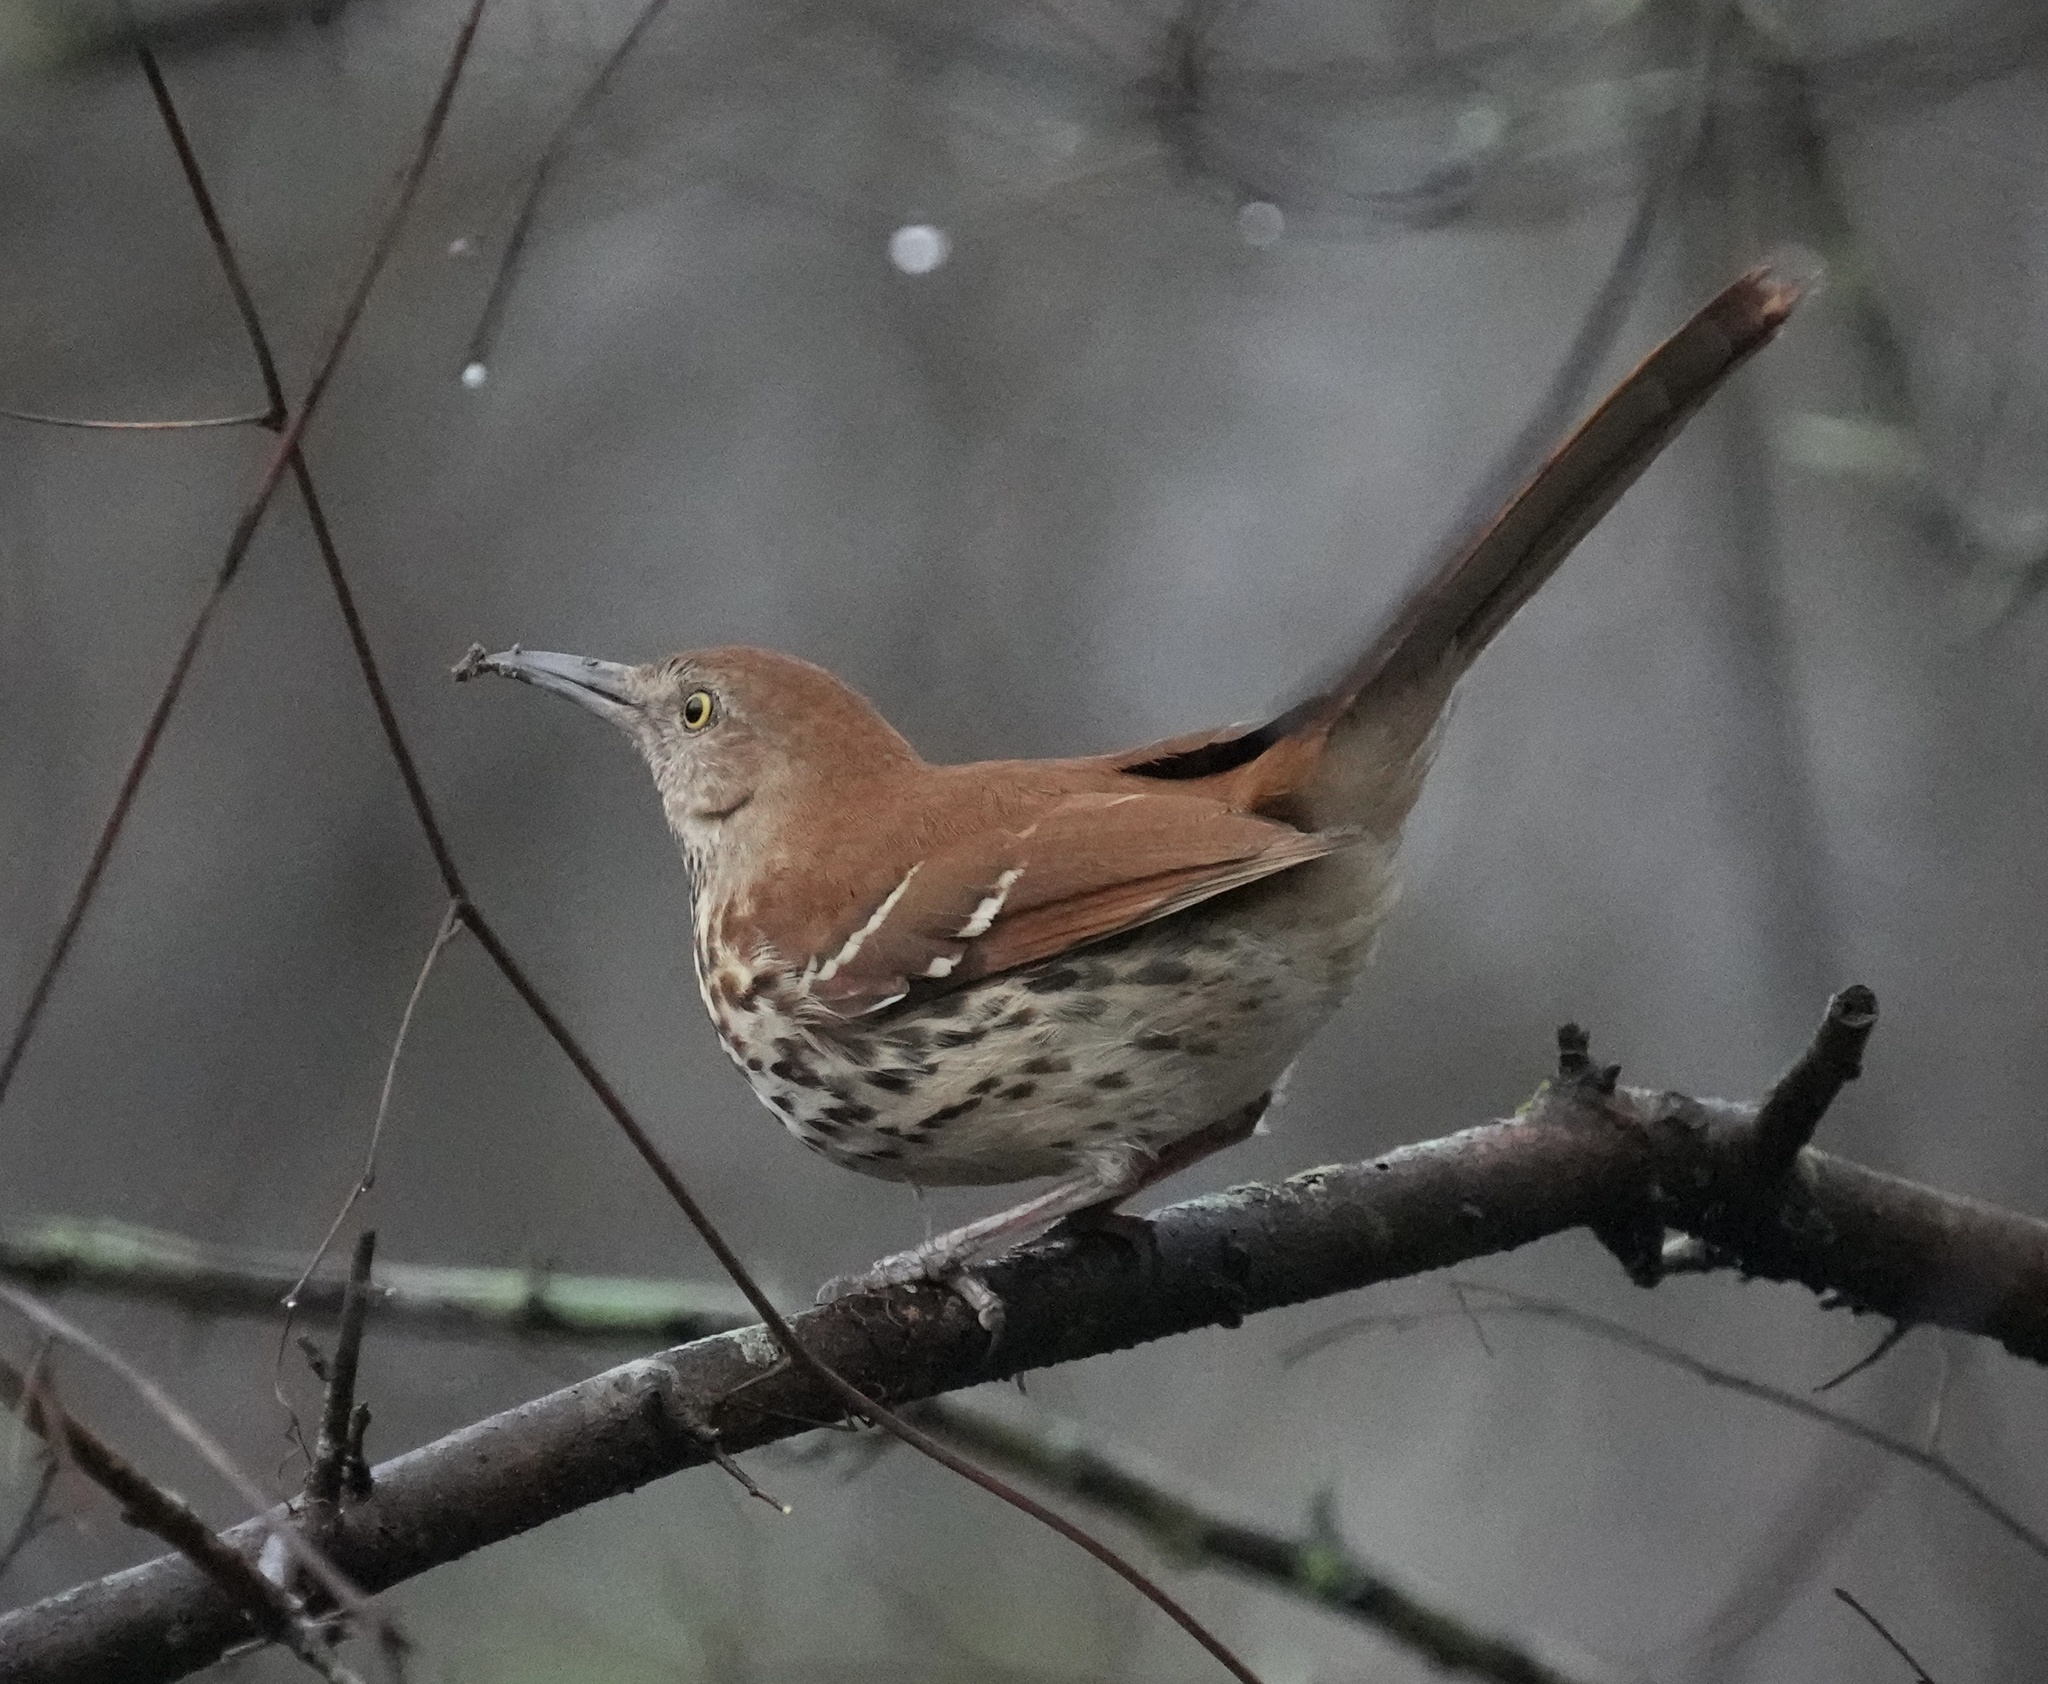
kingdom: Animalia
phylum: Chordata
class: Aves
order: Passeriformes
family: Mimidae
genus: Toxostoma
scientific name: Toxostoma rufum
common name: Brown thrasher
